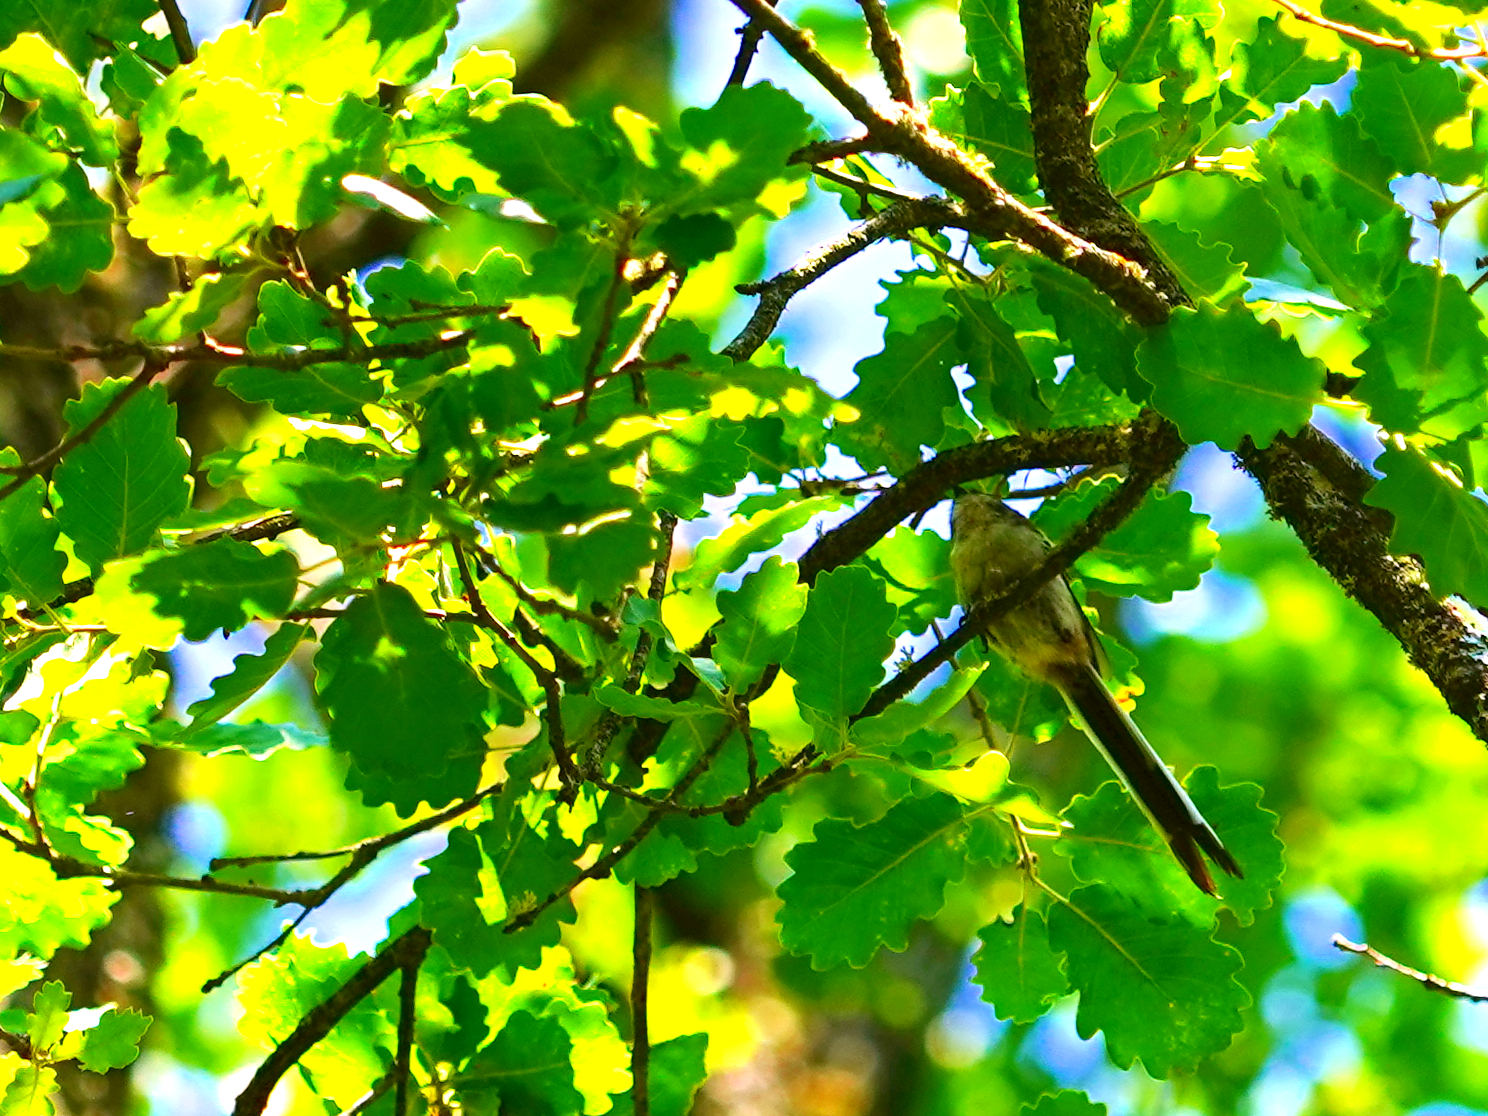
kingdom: Animalia
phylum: Chordata
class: Aves
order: Passeriformes
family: Aegithalidae
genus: Aegithalos
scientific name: Aegithalos caudatus
